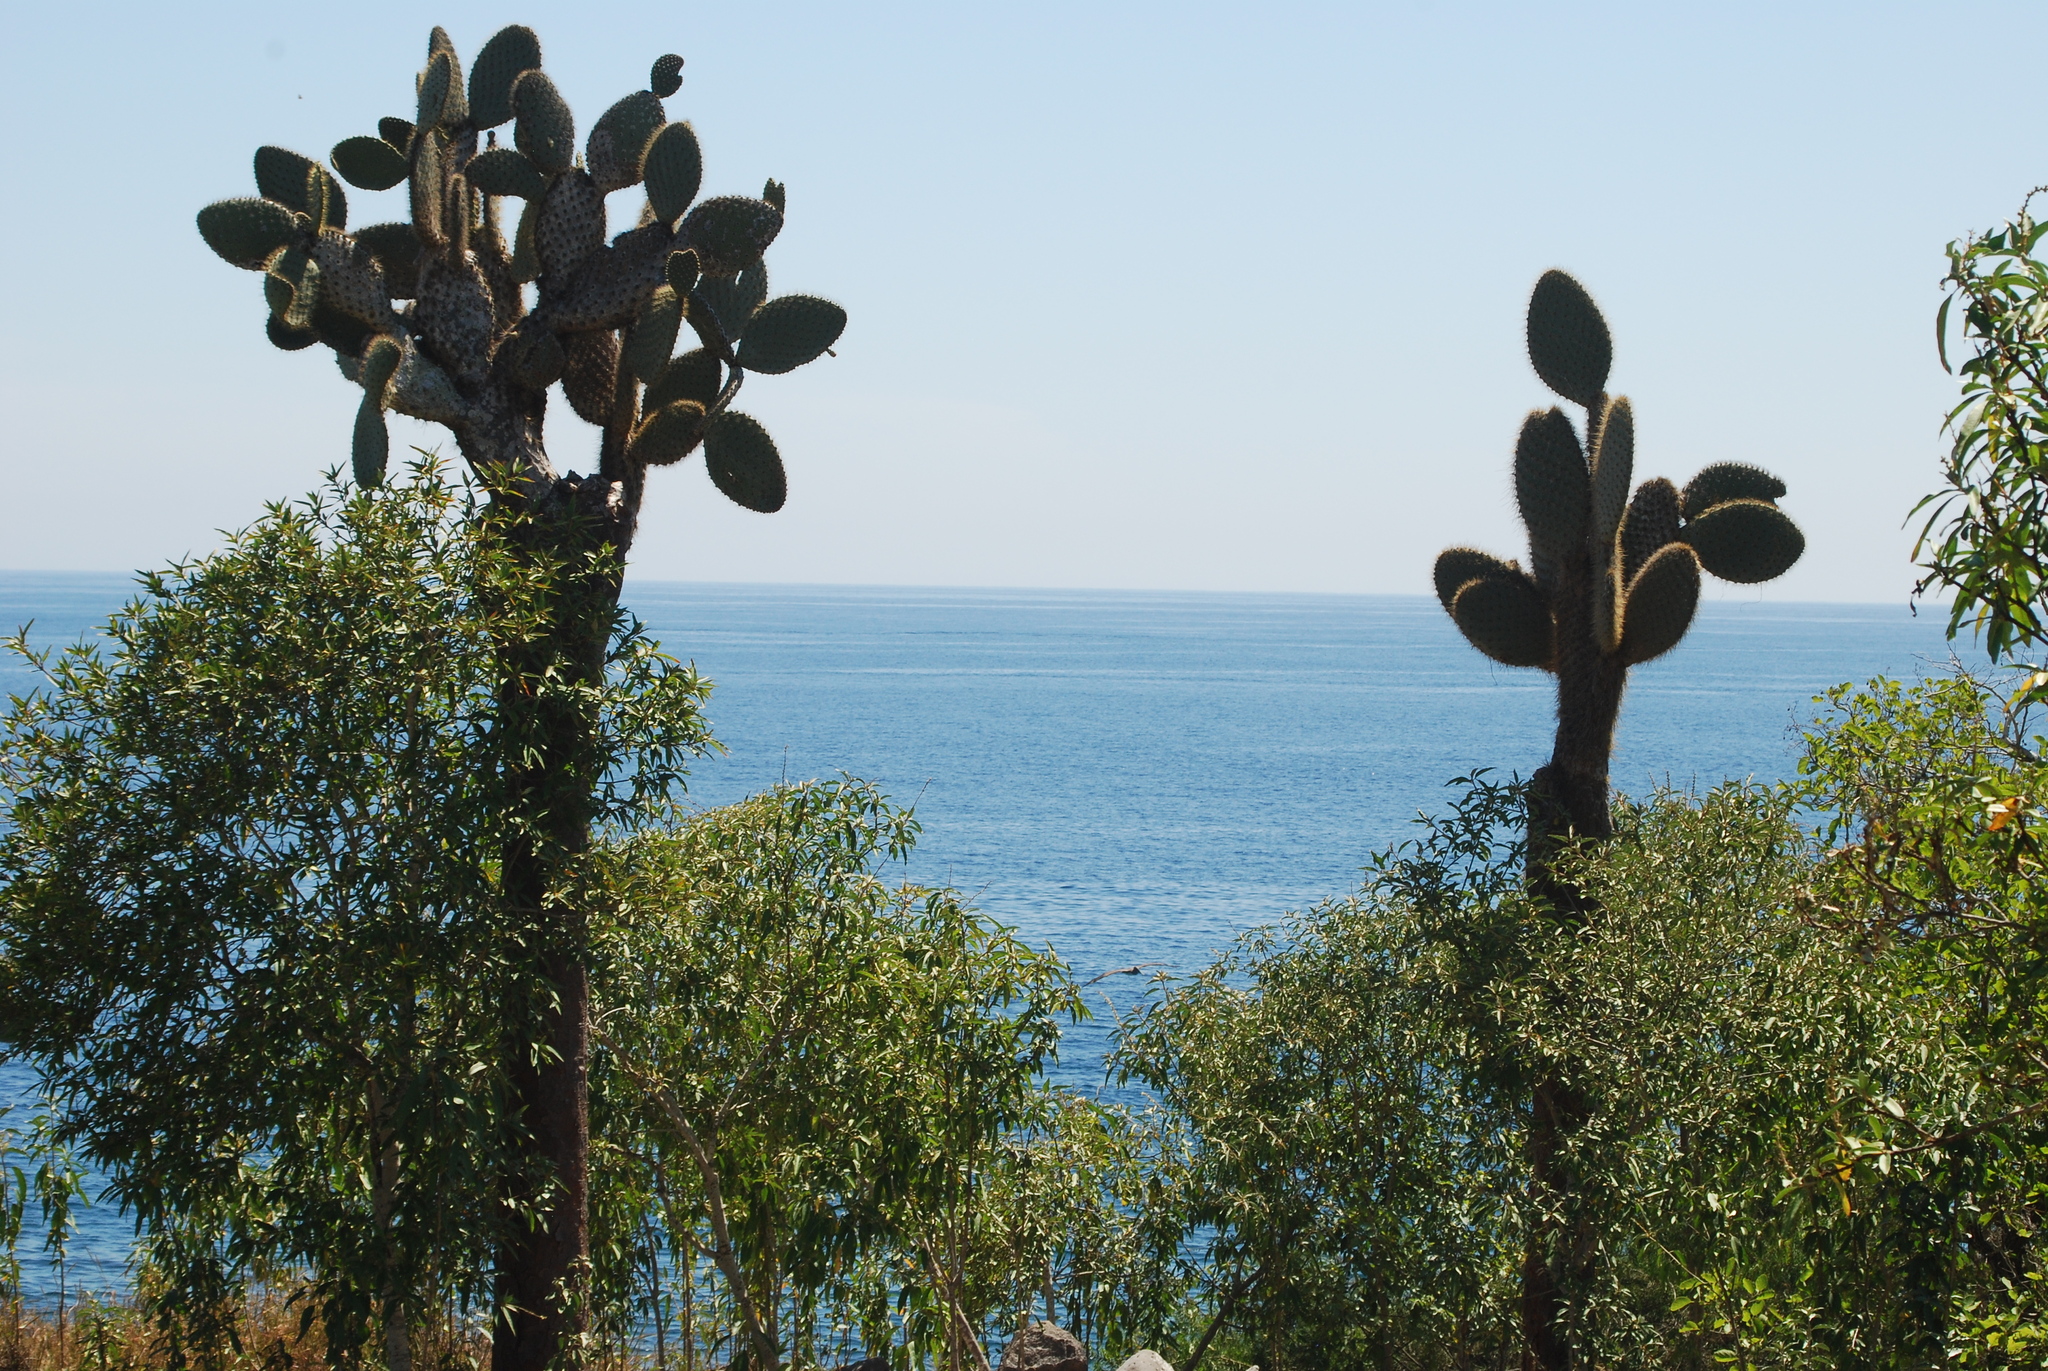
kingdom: Plantae
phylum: Tracheophyta
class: Magnoliopsida
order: Caryophyllales
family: Cactaceae
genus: Opuntia
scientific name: Opuntia galapageia
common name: Galápagos prickly pear
